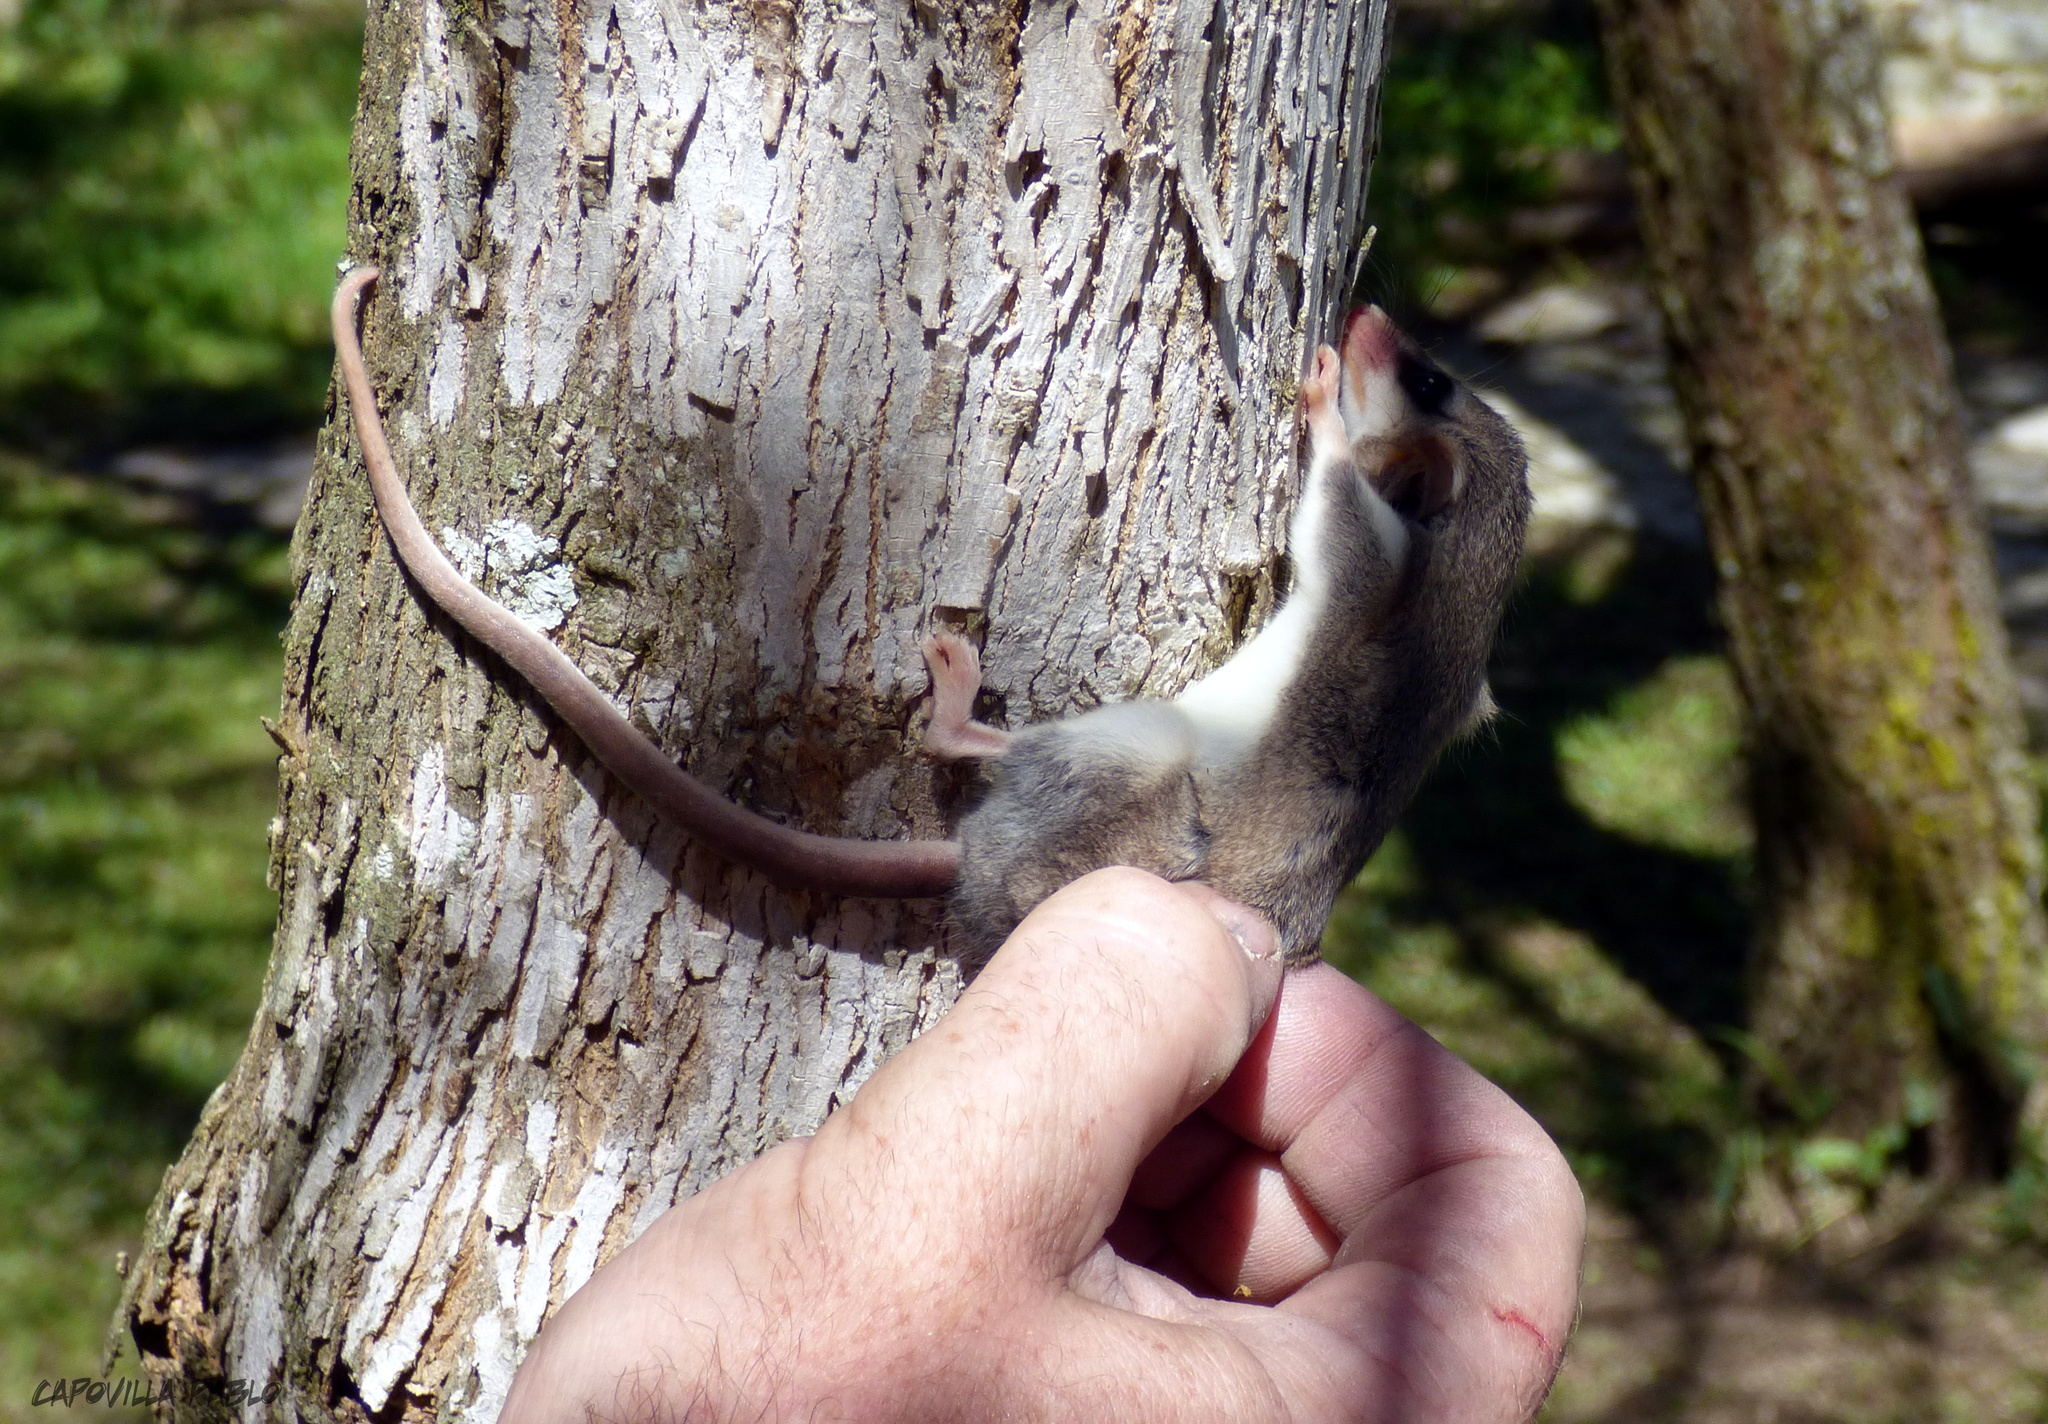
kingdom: Animalia
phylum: Chordata
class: Mammalia
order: Didelphimorphia
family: Didelphidae
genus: Thylamys
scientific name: Thylamys pusillus
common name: Common fat-tailed mouse opossum
